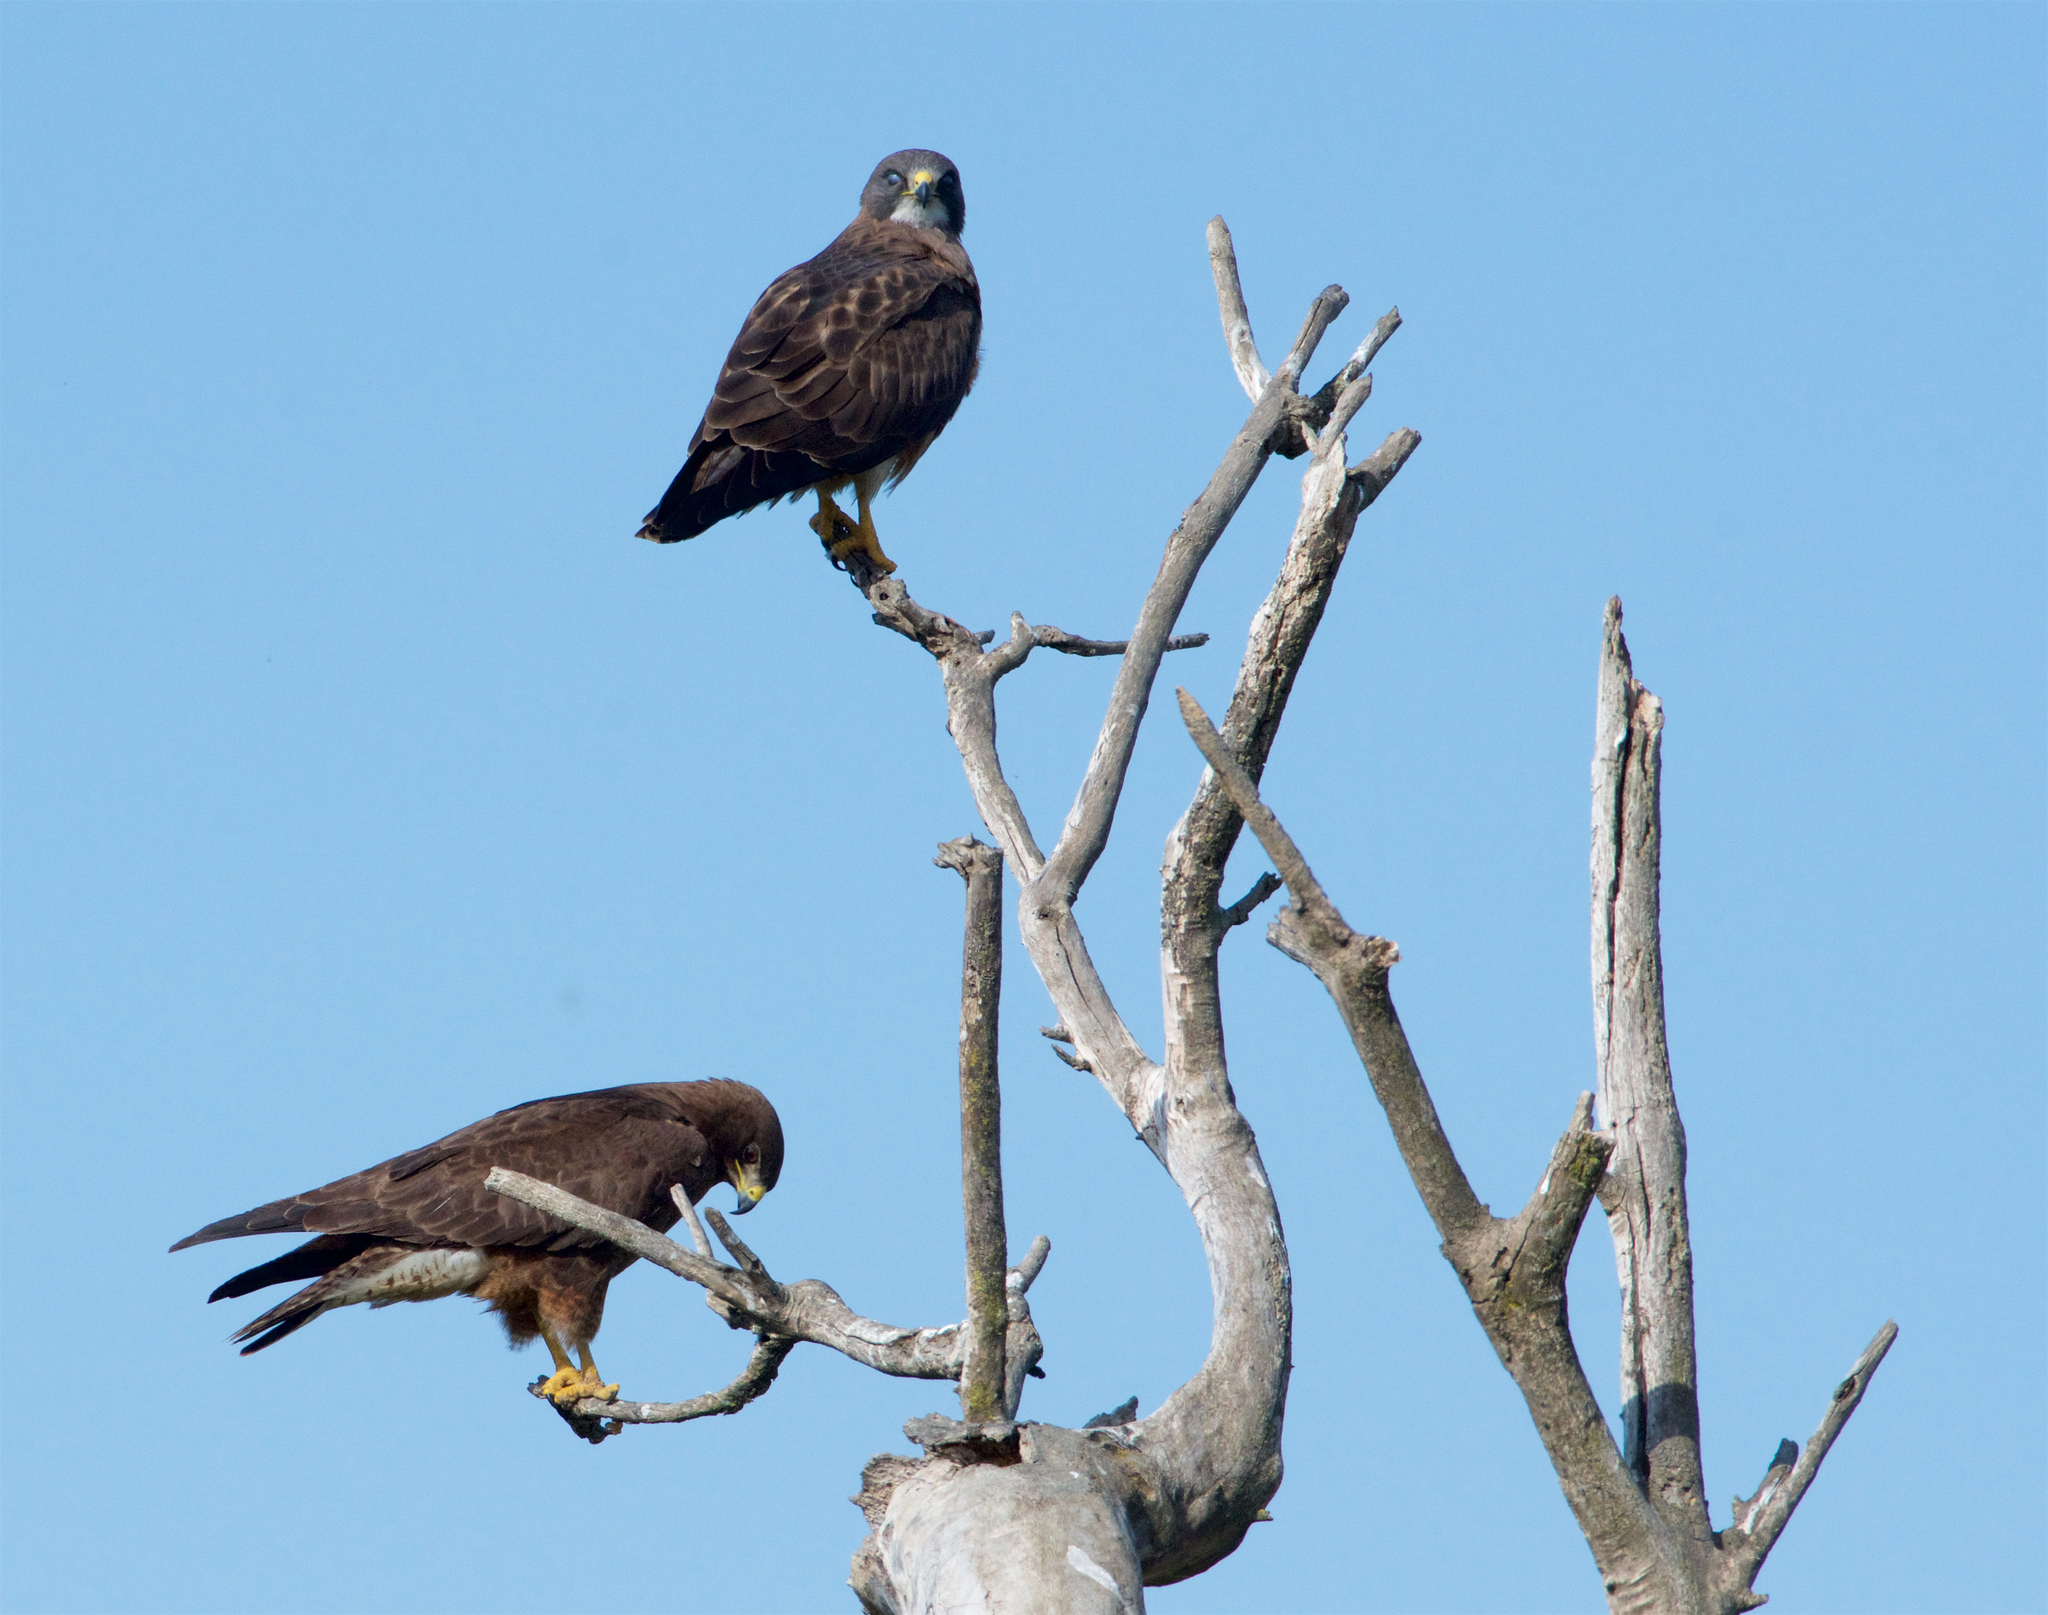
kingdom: Animalia
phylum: Chordata
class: Aves
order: Accipitriformes
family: Accipitridae
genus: Buteo
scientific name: Buteo swainsoni
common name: Swainson's hawk
